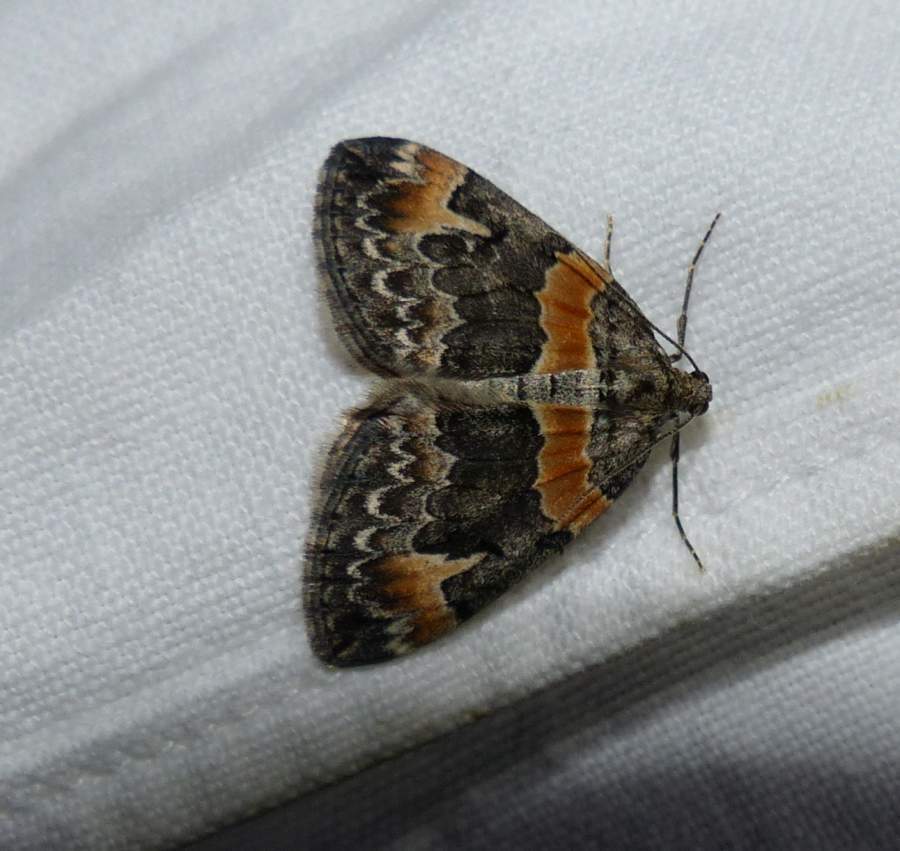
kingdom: Animalia
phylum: Arthropoda
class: Insecta
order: Lepidoptera
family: Geometridae
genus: Dysstroma
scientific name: Dysstroma hersiliata
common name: Orange-barred carpet
